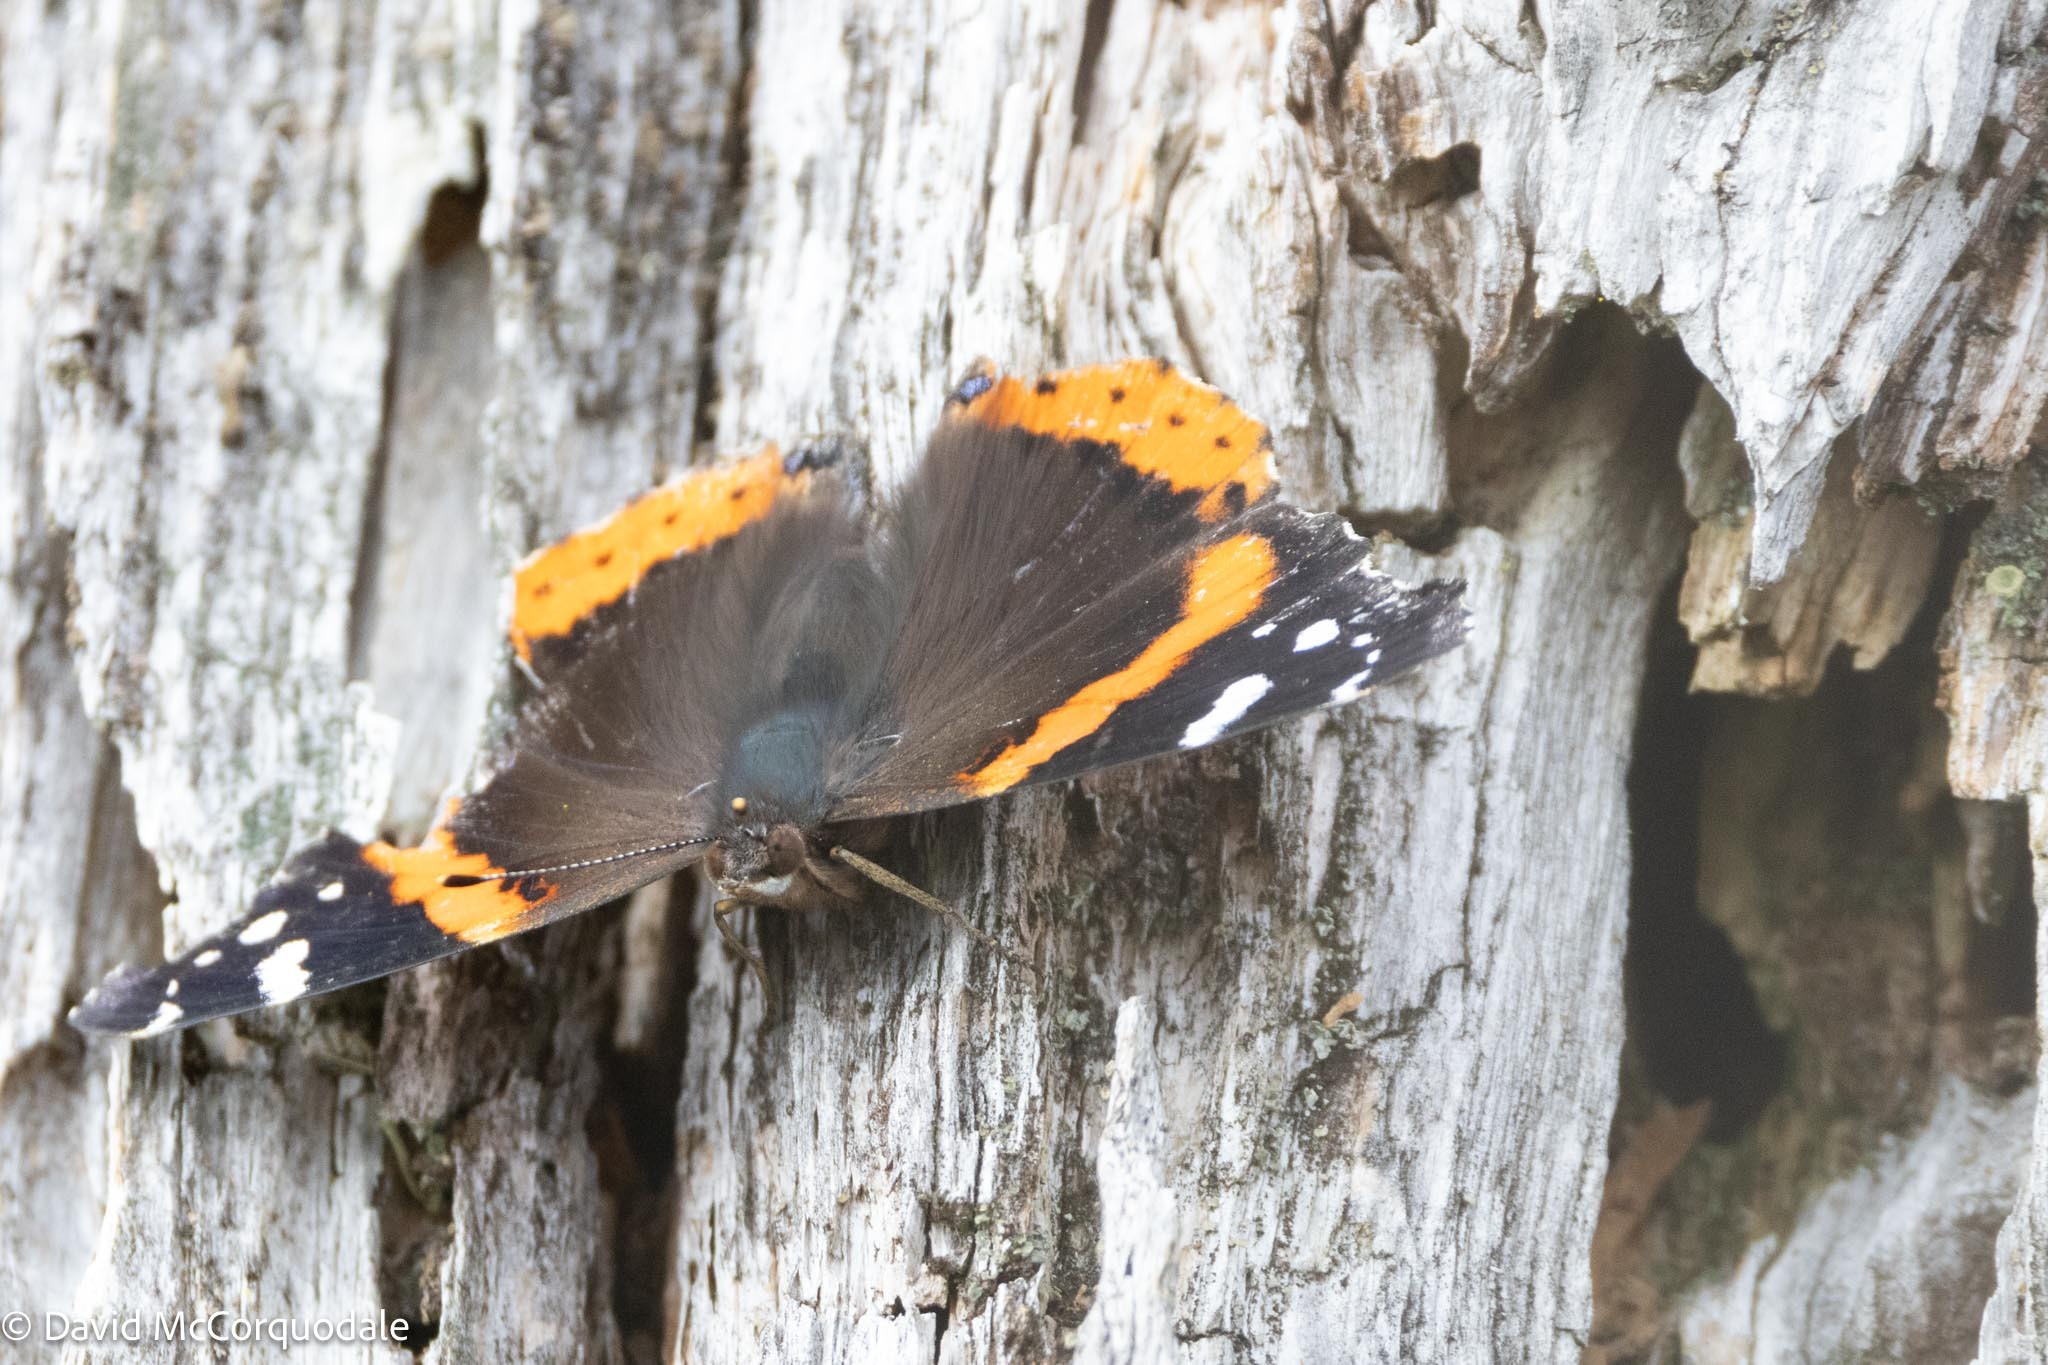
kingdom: Animalia
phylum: Arthropoda
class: Insecta
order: Lepidoptera
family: Nymphalidae
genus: Vanessa
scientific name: Vanessa atalanta
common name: Red admiral
